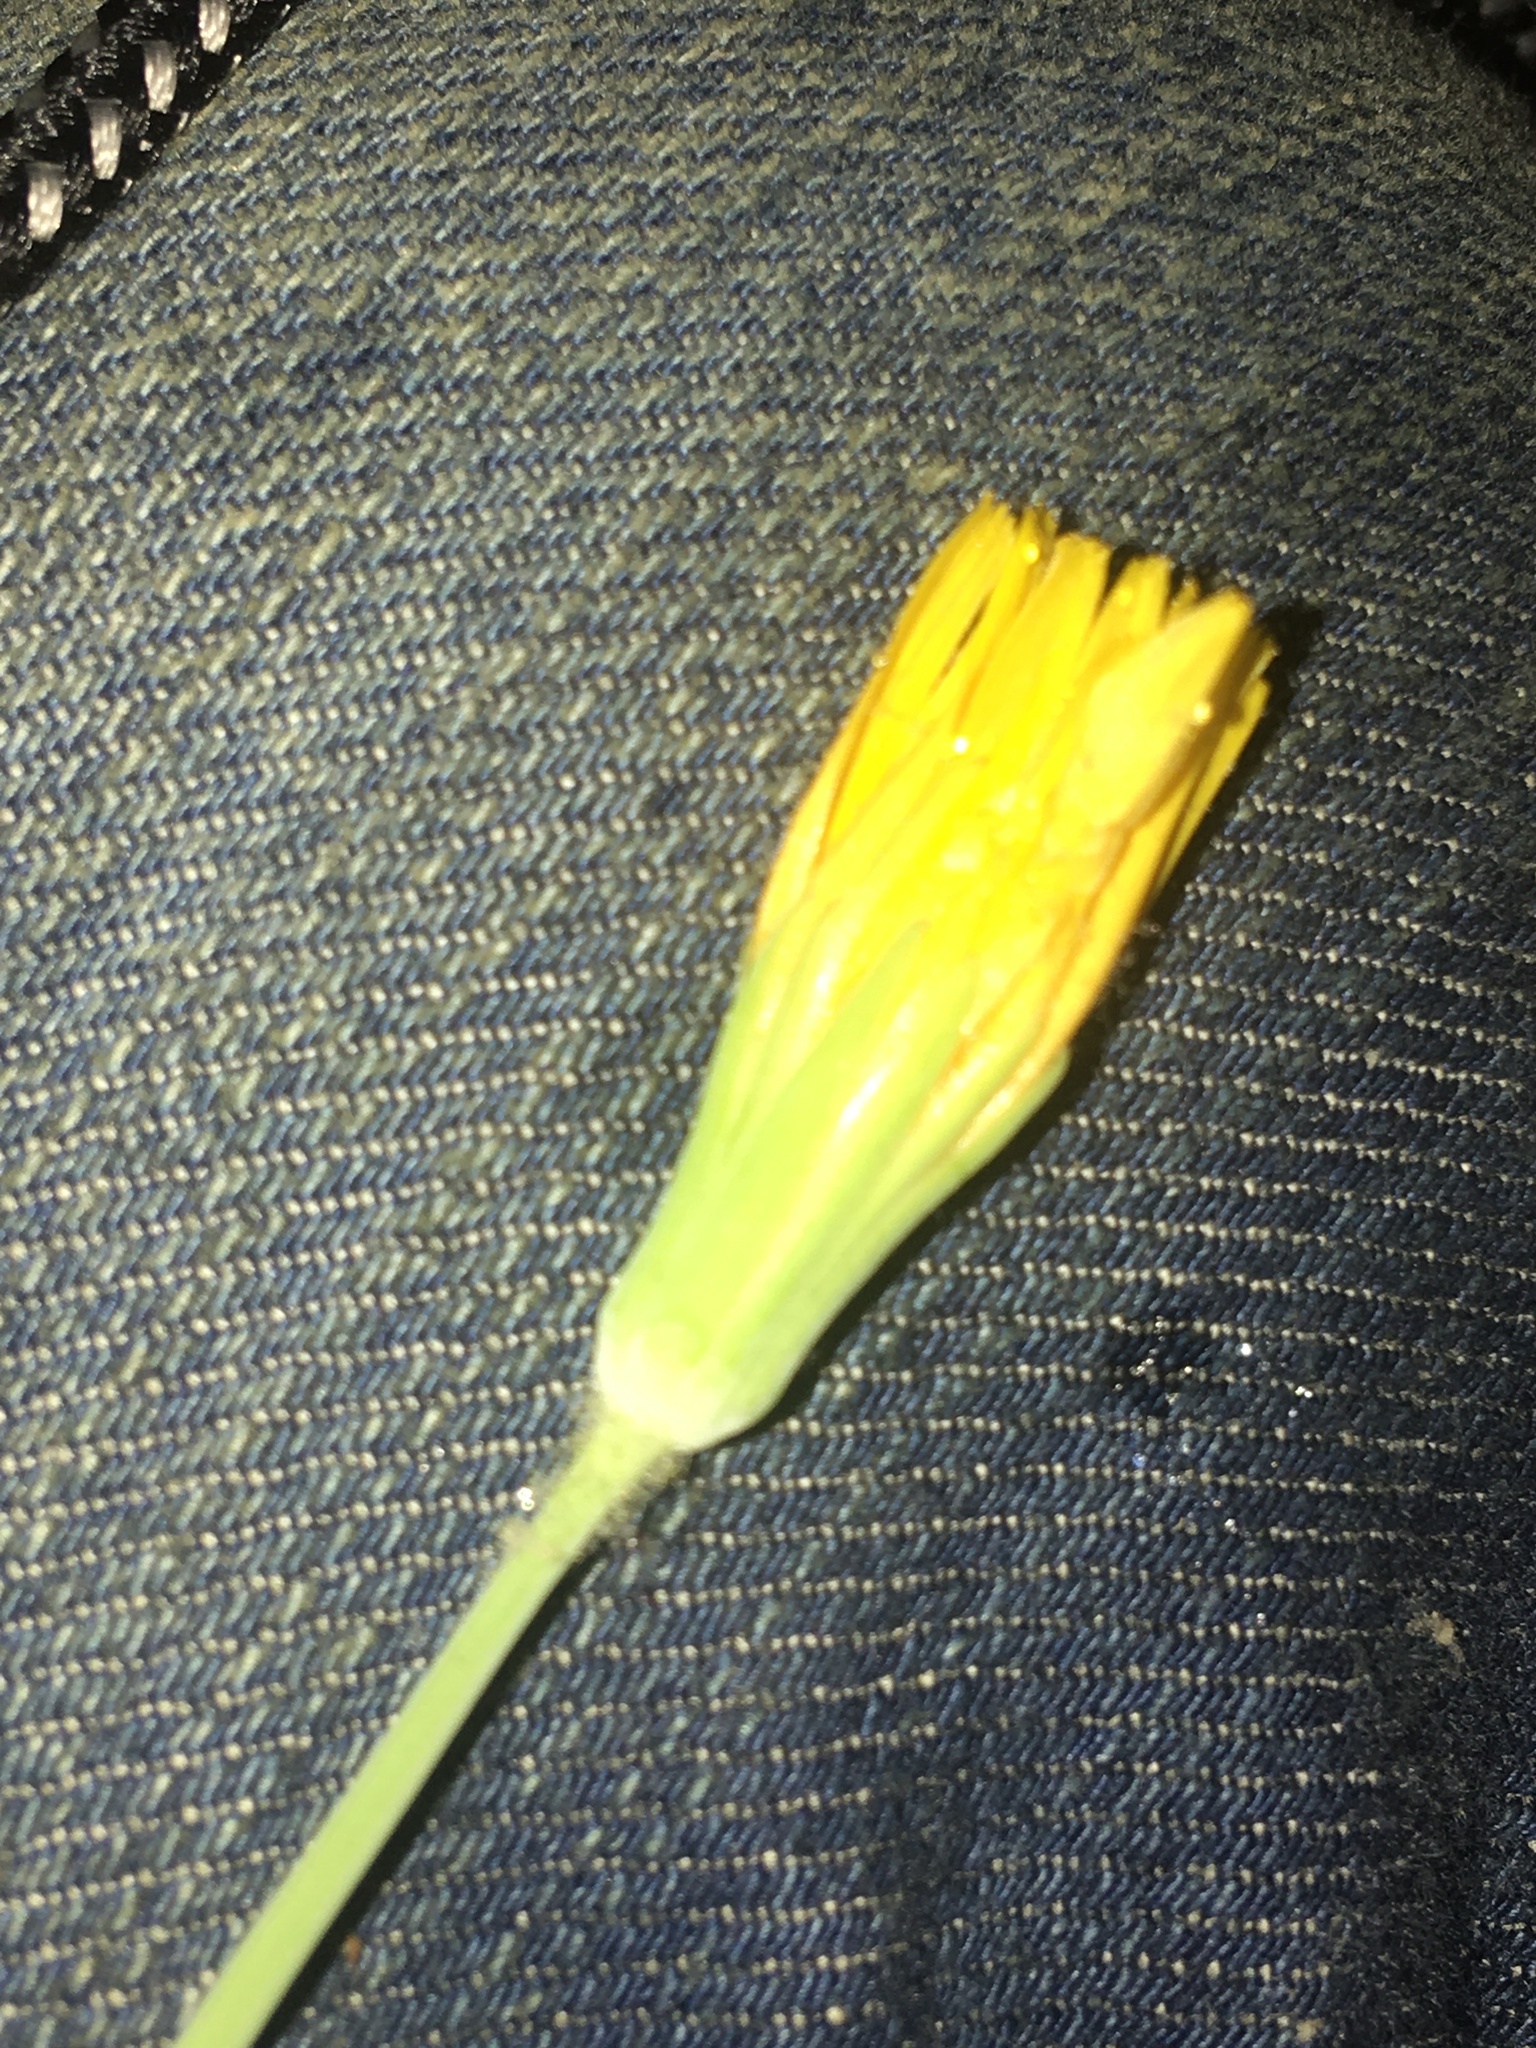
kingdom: Plantae
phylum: Tracheophyta
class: Magnoliopsida
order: Asterales
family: Asteraceae
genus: Krigia
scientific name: Krigia dandelion
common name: Colonial dwarf-dandelion
